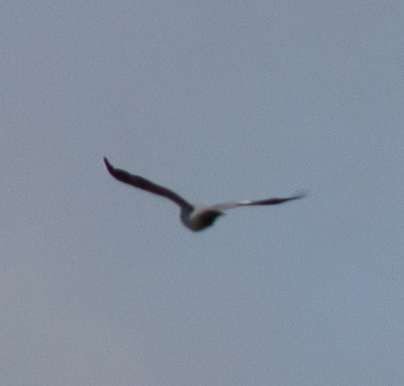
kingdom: Animalia
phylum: Chordata
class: Aves
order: Columbiformes
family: Columbidae
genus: Columba
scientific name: Columba palumbus
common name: Common wood pigeon
